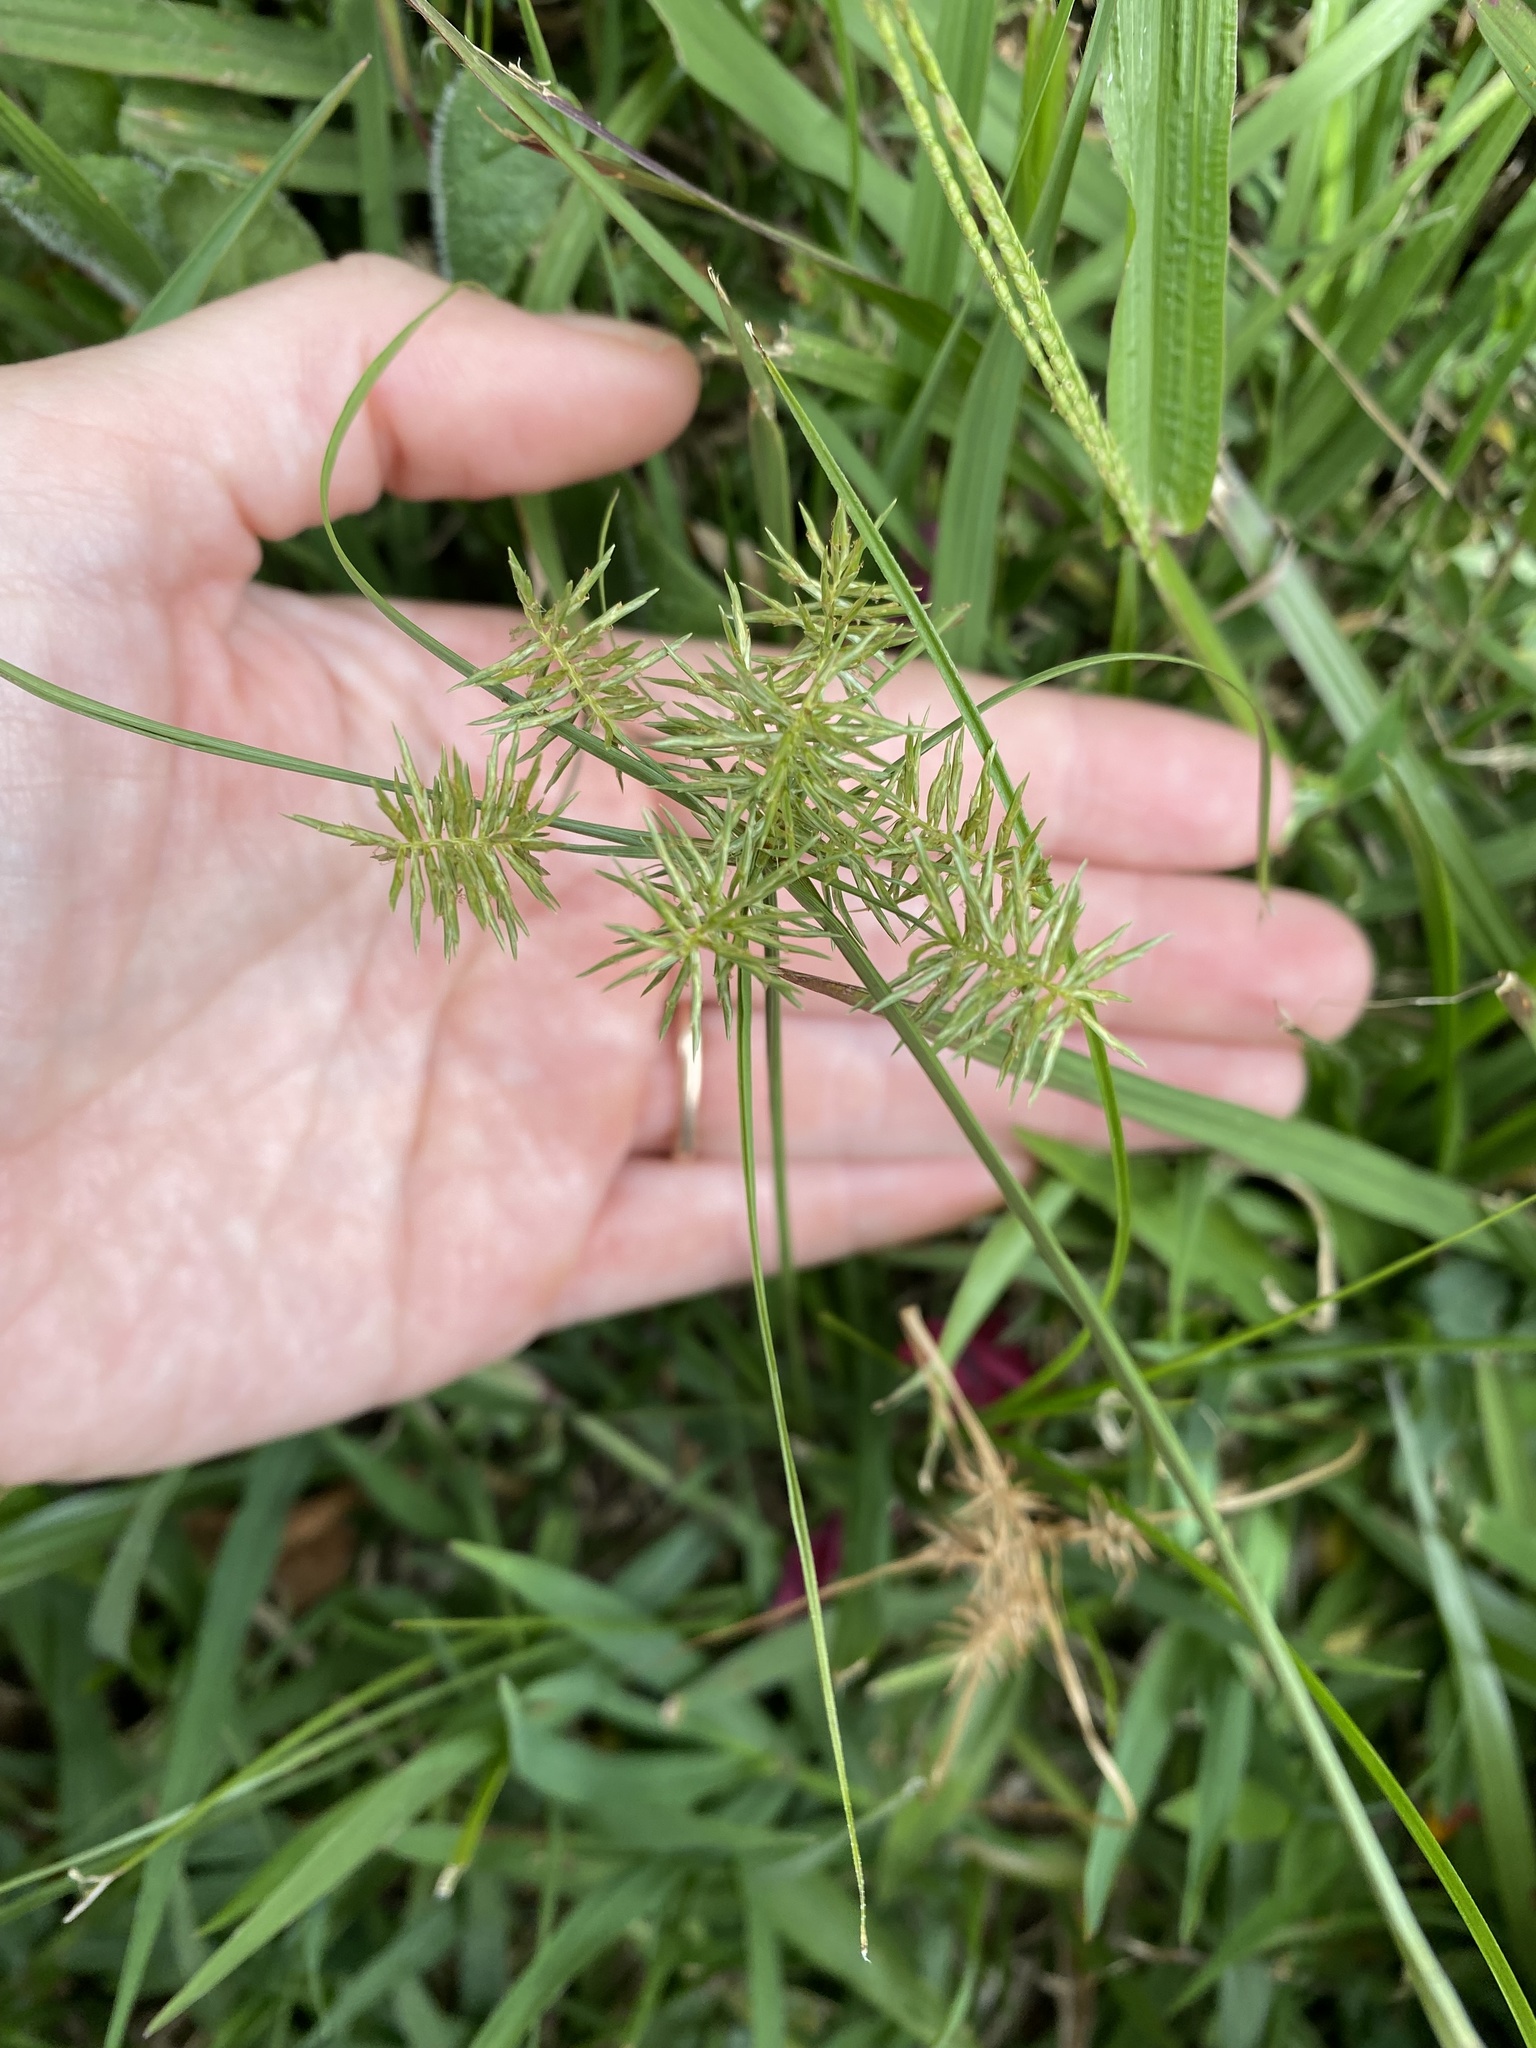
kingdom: Plantae
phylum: Tracheophyta
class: Liliopsida
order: Poales
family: Cyperaceae
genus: Cyperus
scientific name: Cyperus odoratus
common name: Fragrant flatsedge
